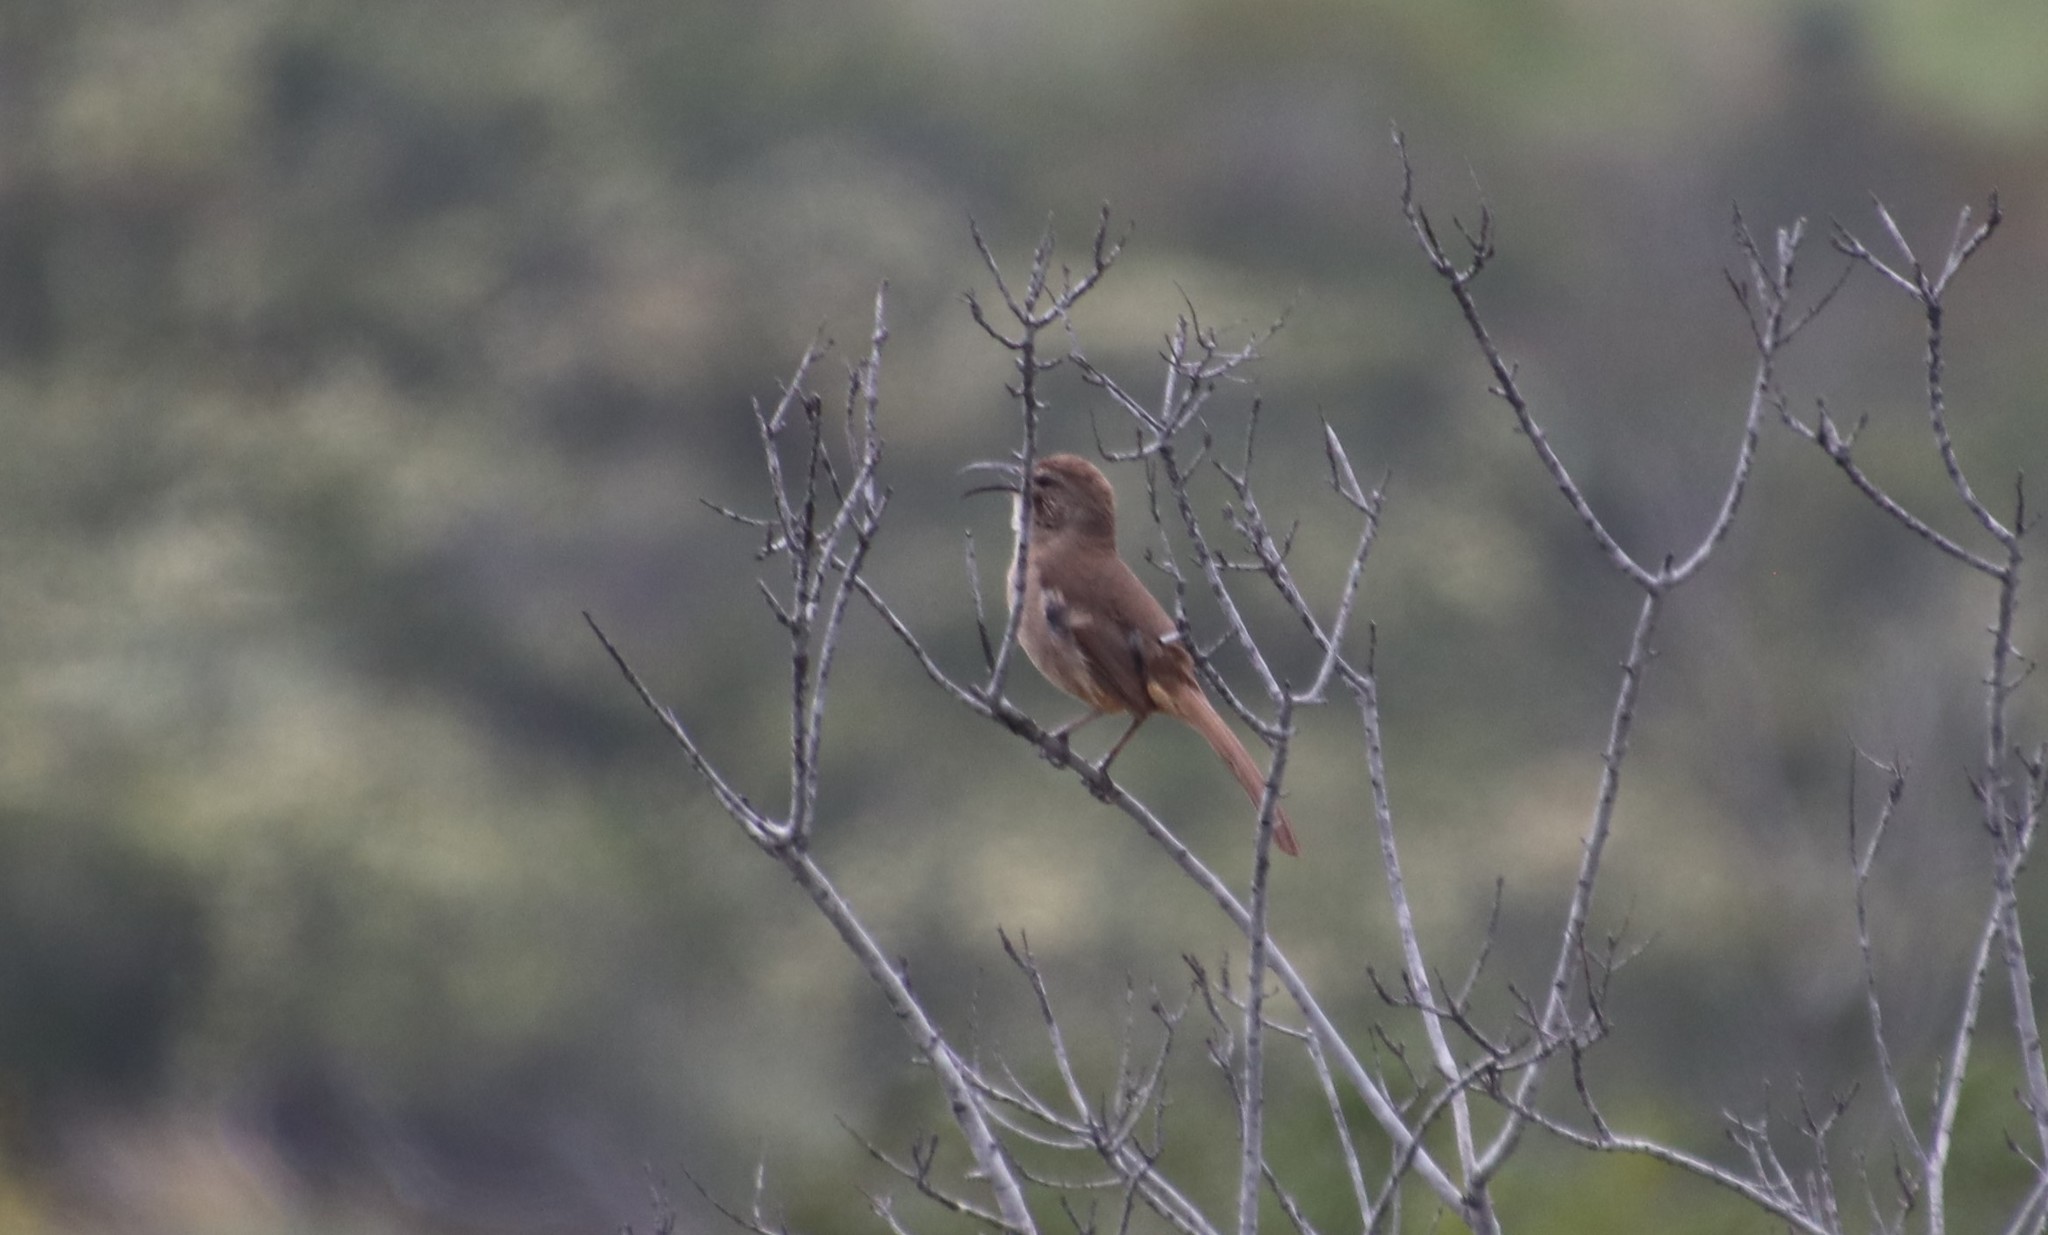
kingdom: Animalia
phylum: Chordata
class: Aves
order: Passeriformes
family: Mimidae
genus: Toxostoma
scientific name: Toxostoma redivivum
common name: California thrasher
